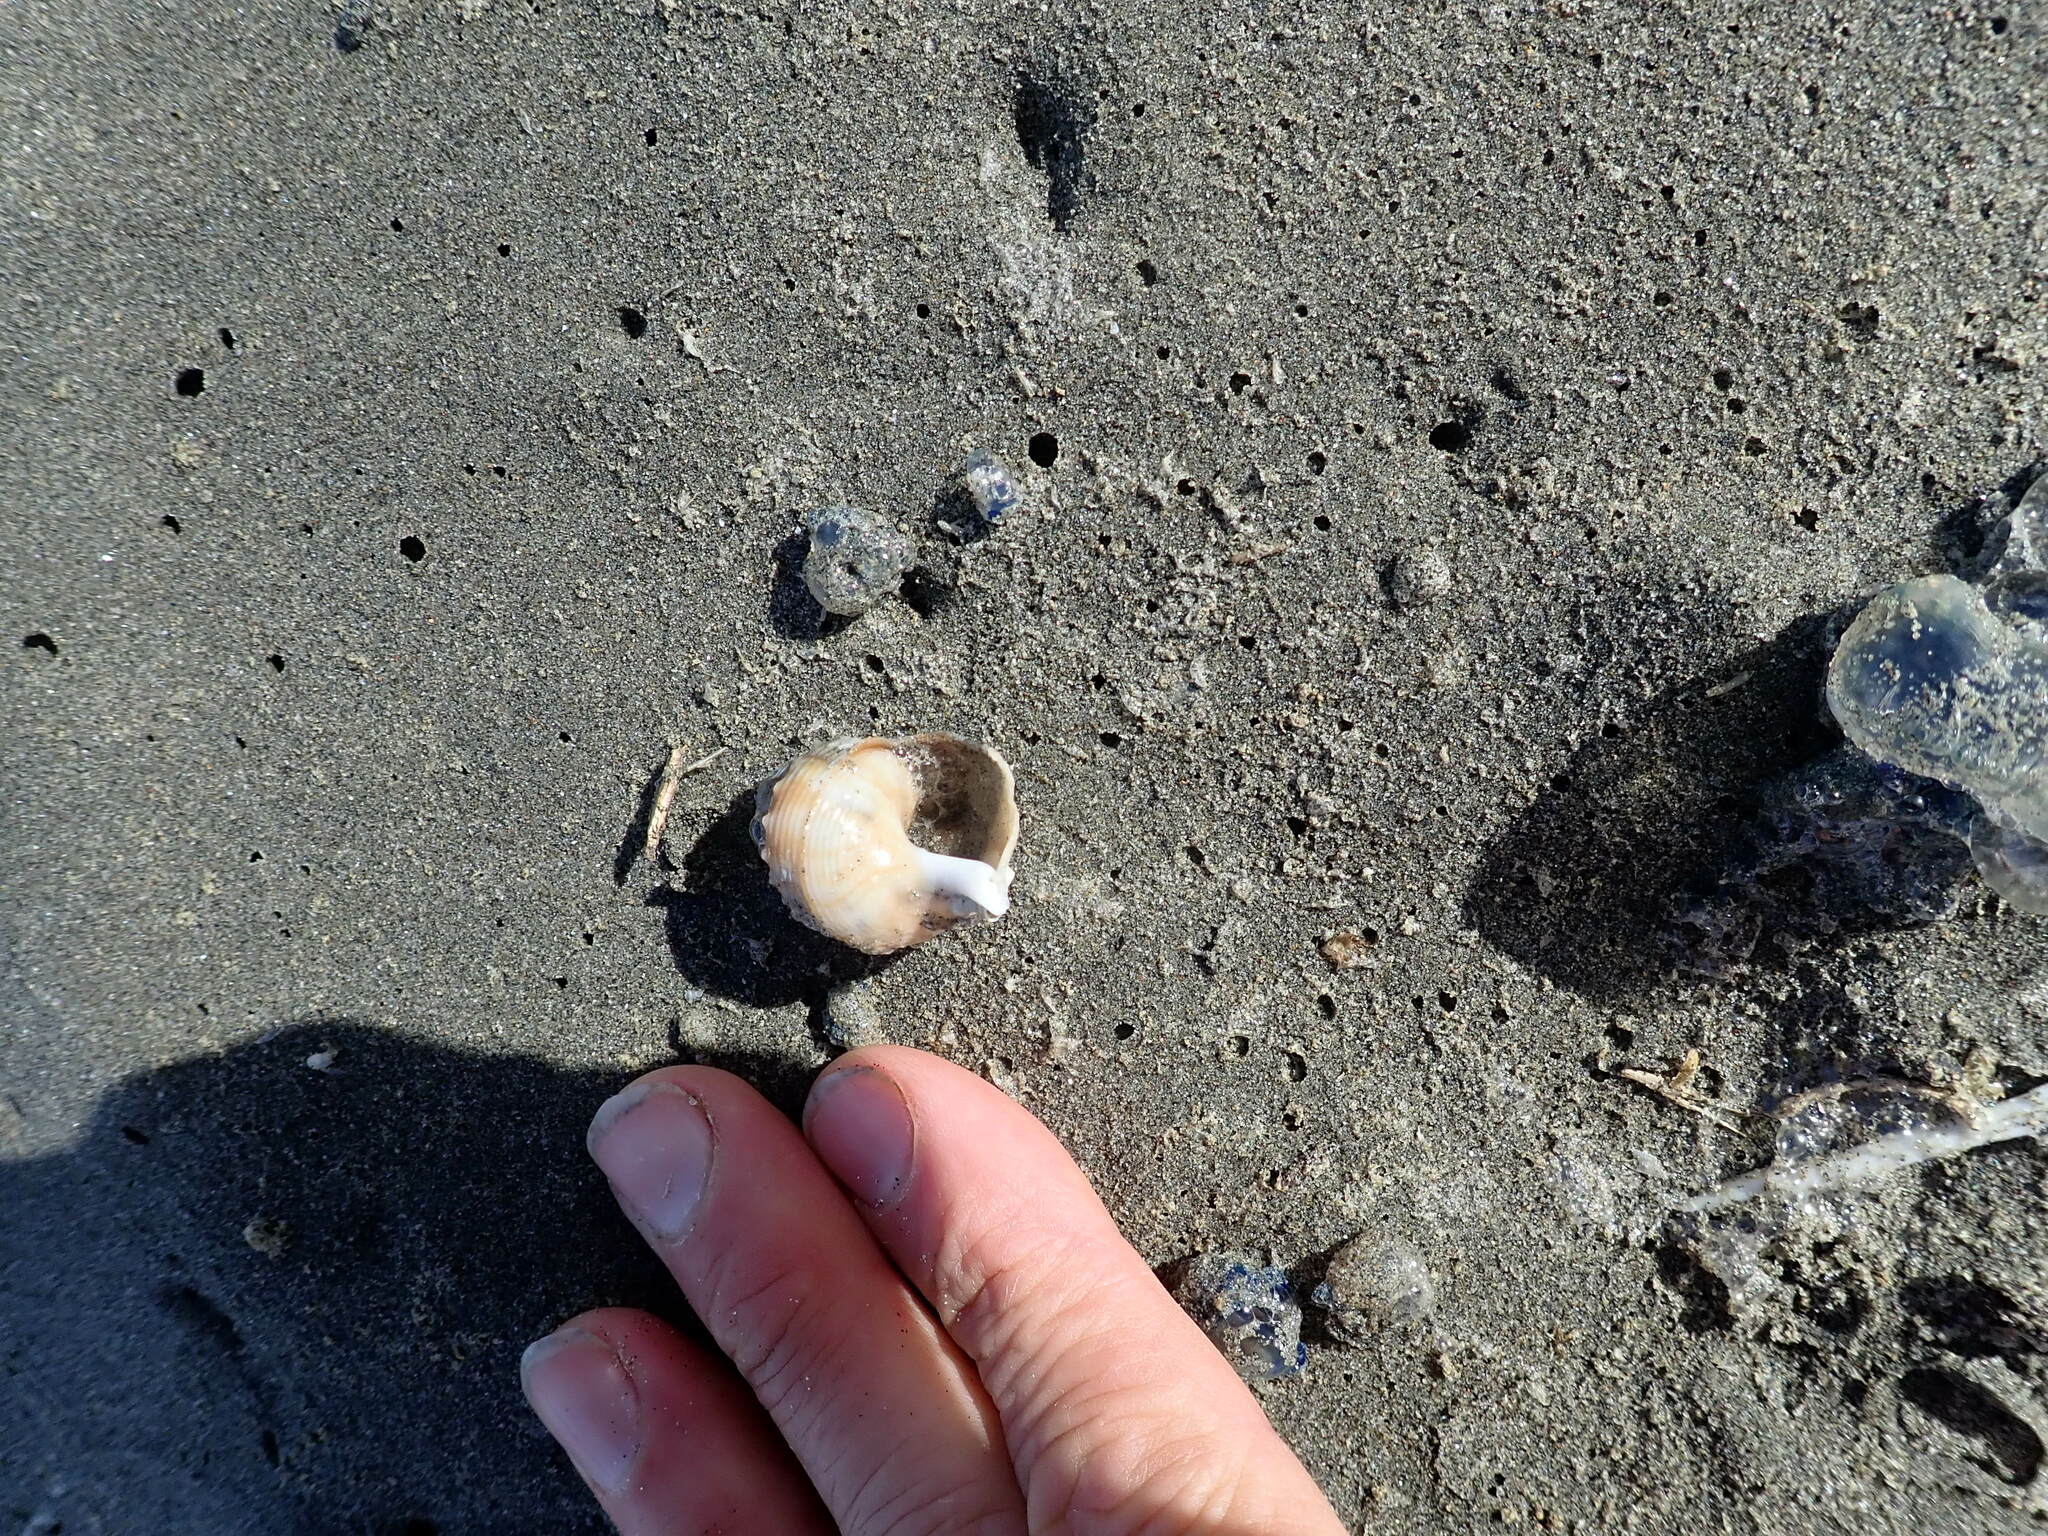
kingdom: Animalia
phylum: Mollusca
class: Gastropoda
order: Littorinimorpha
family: Struthiolariidae
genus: Struthiolaria
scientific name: Struthiolaria papulosa
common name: Large ostrich foot
